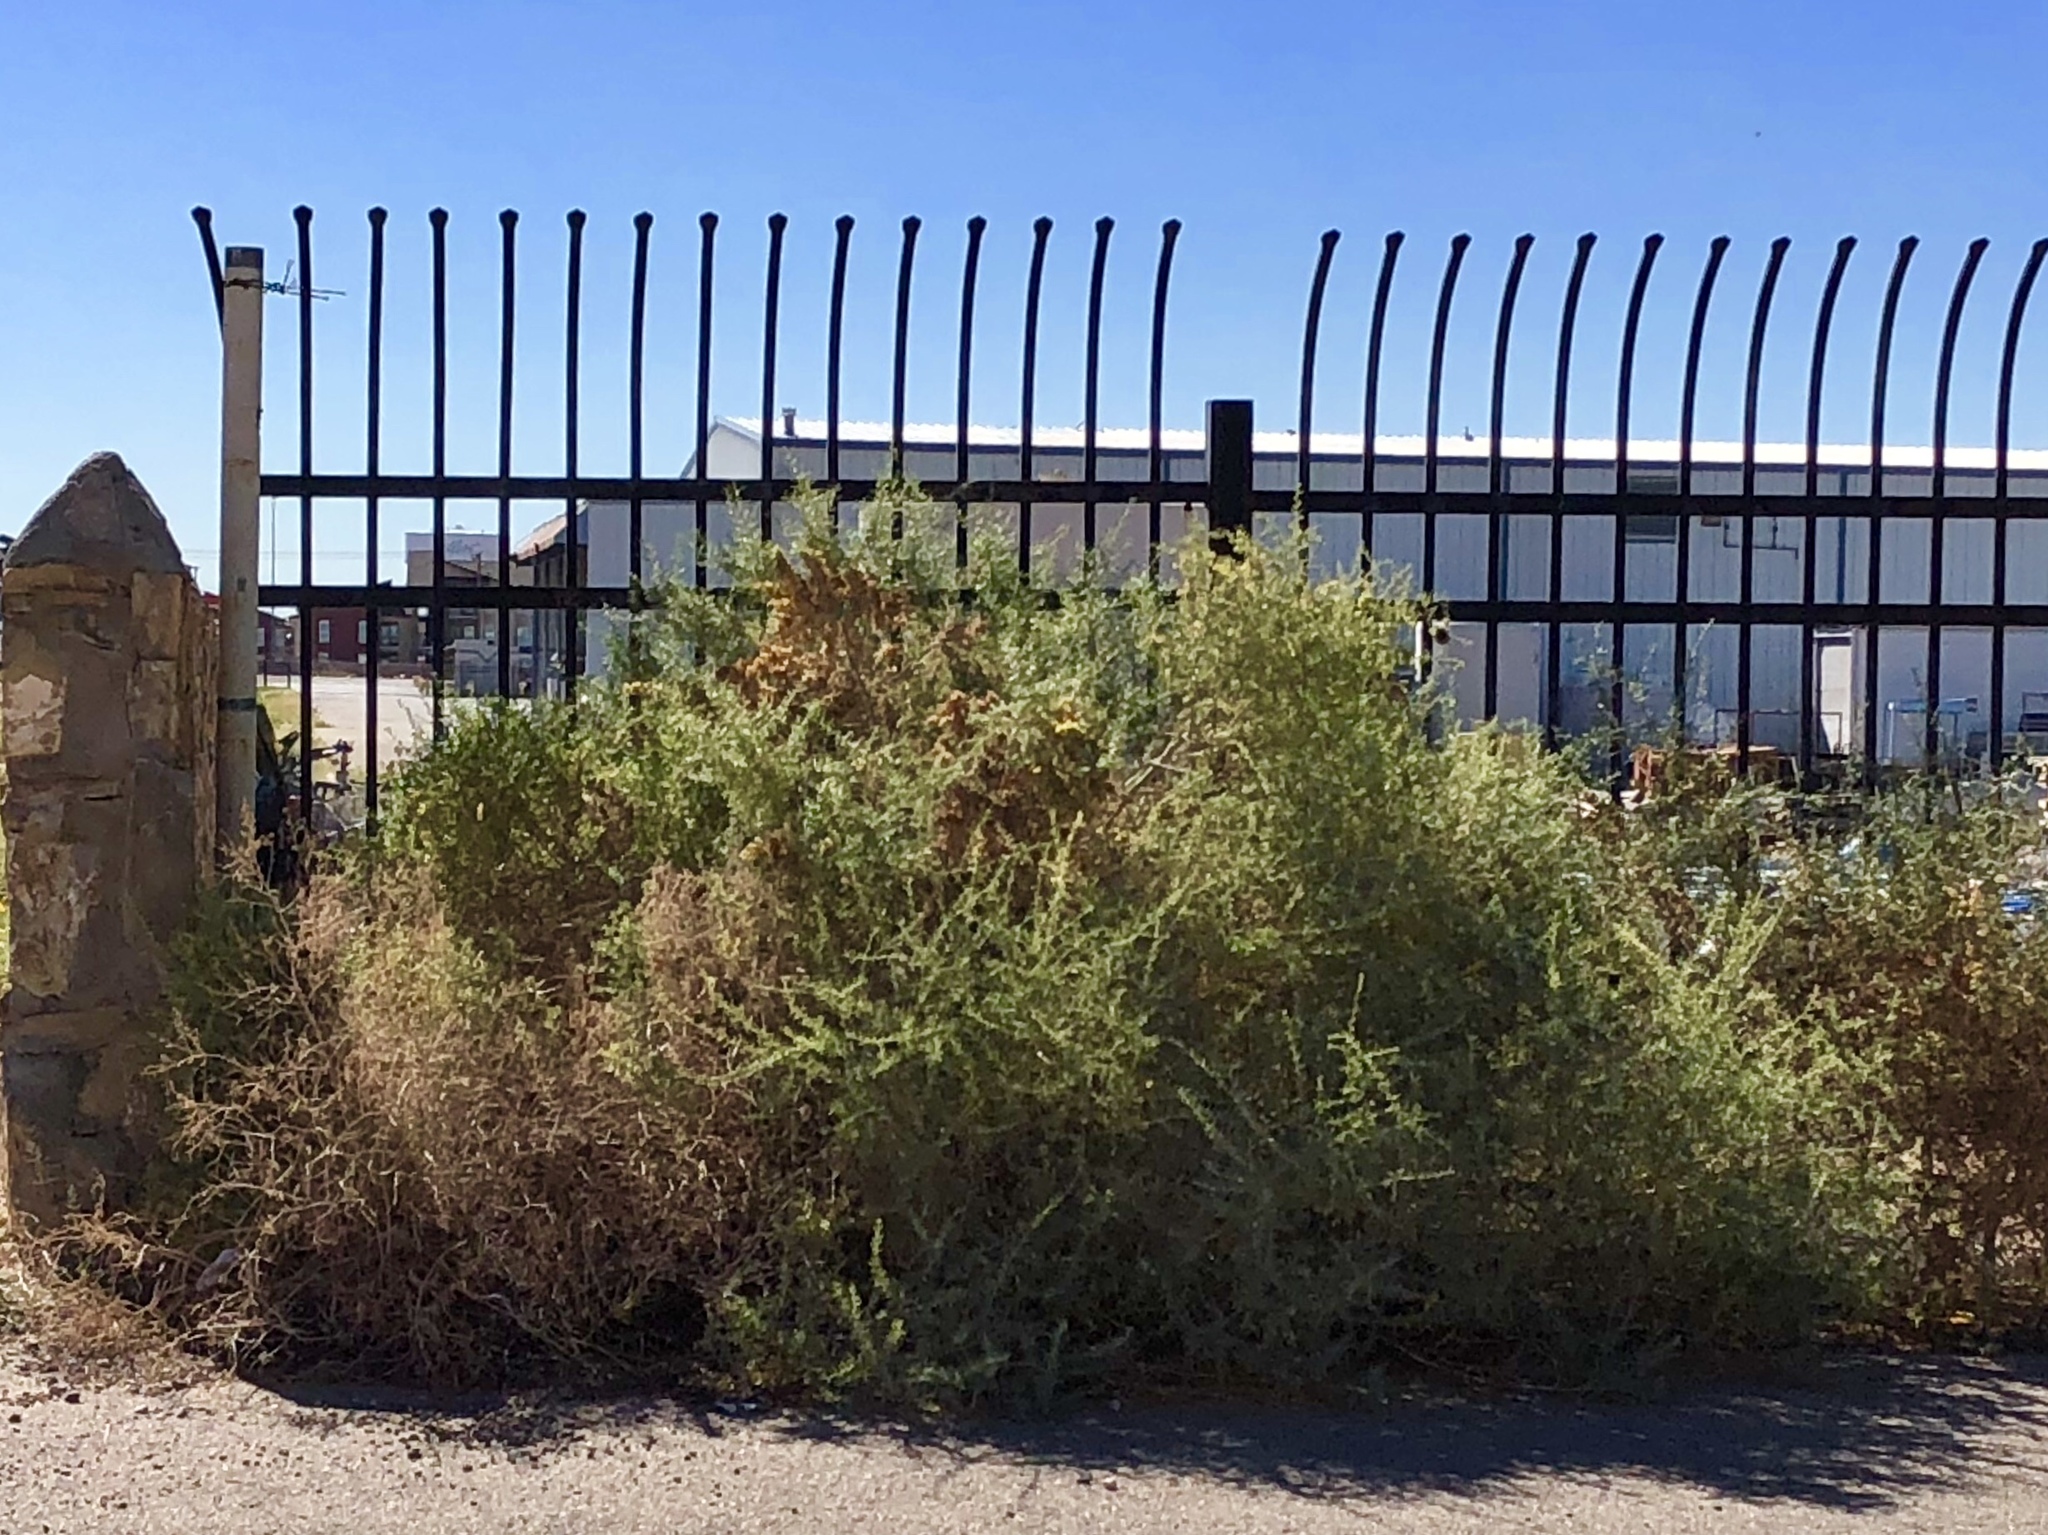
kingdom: Plantae
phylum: Tracheophyta
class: Magnoliopsida
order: Caryophyllales
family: Amaranthaceae
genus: Atriplex
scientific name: Atriplex canescens
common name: Four-wing saltbush
